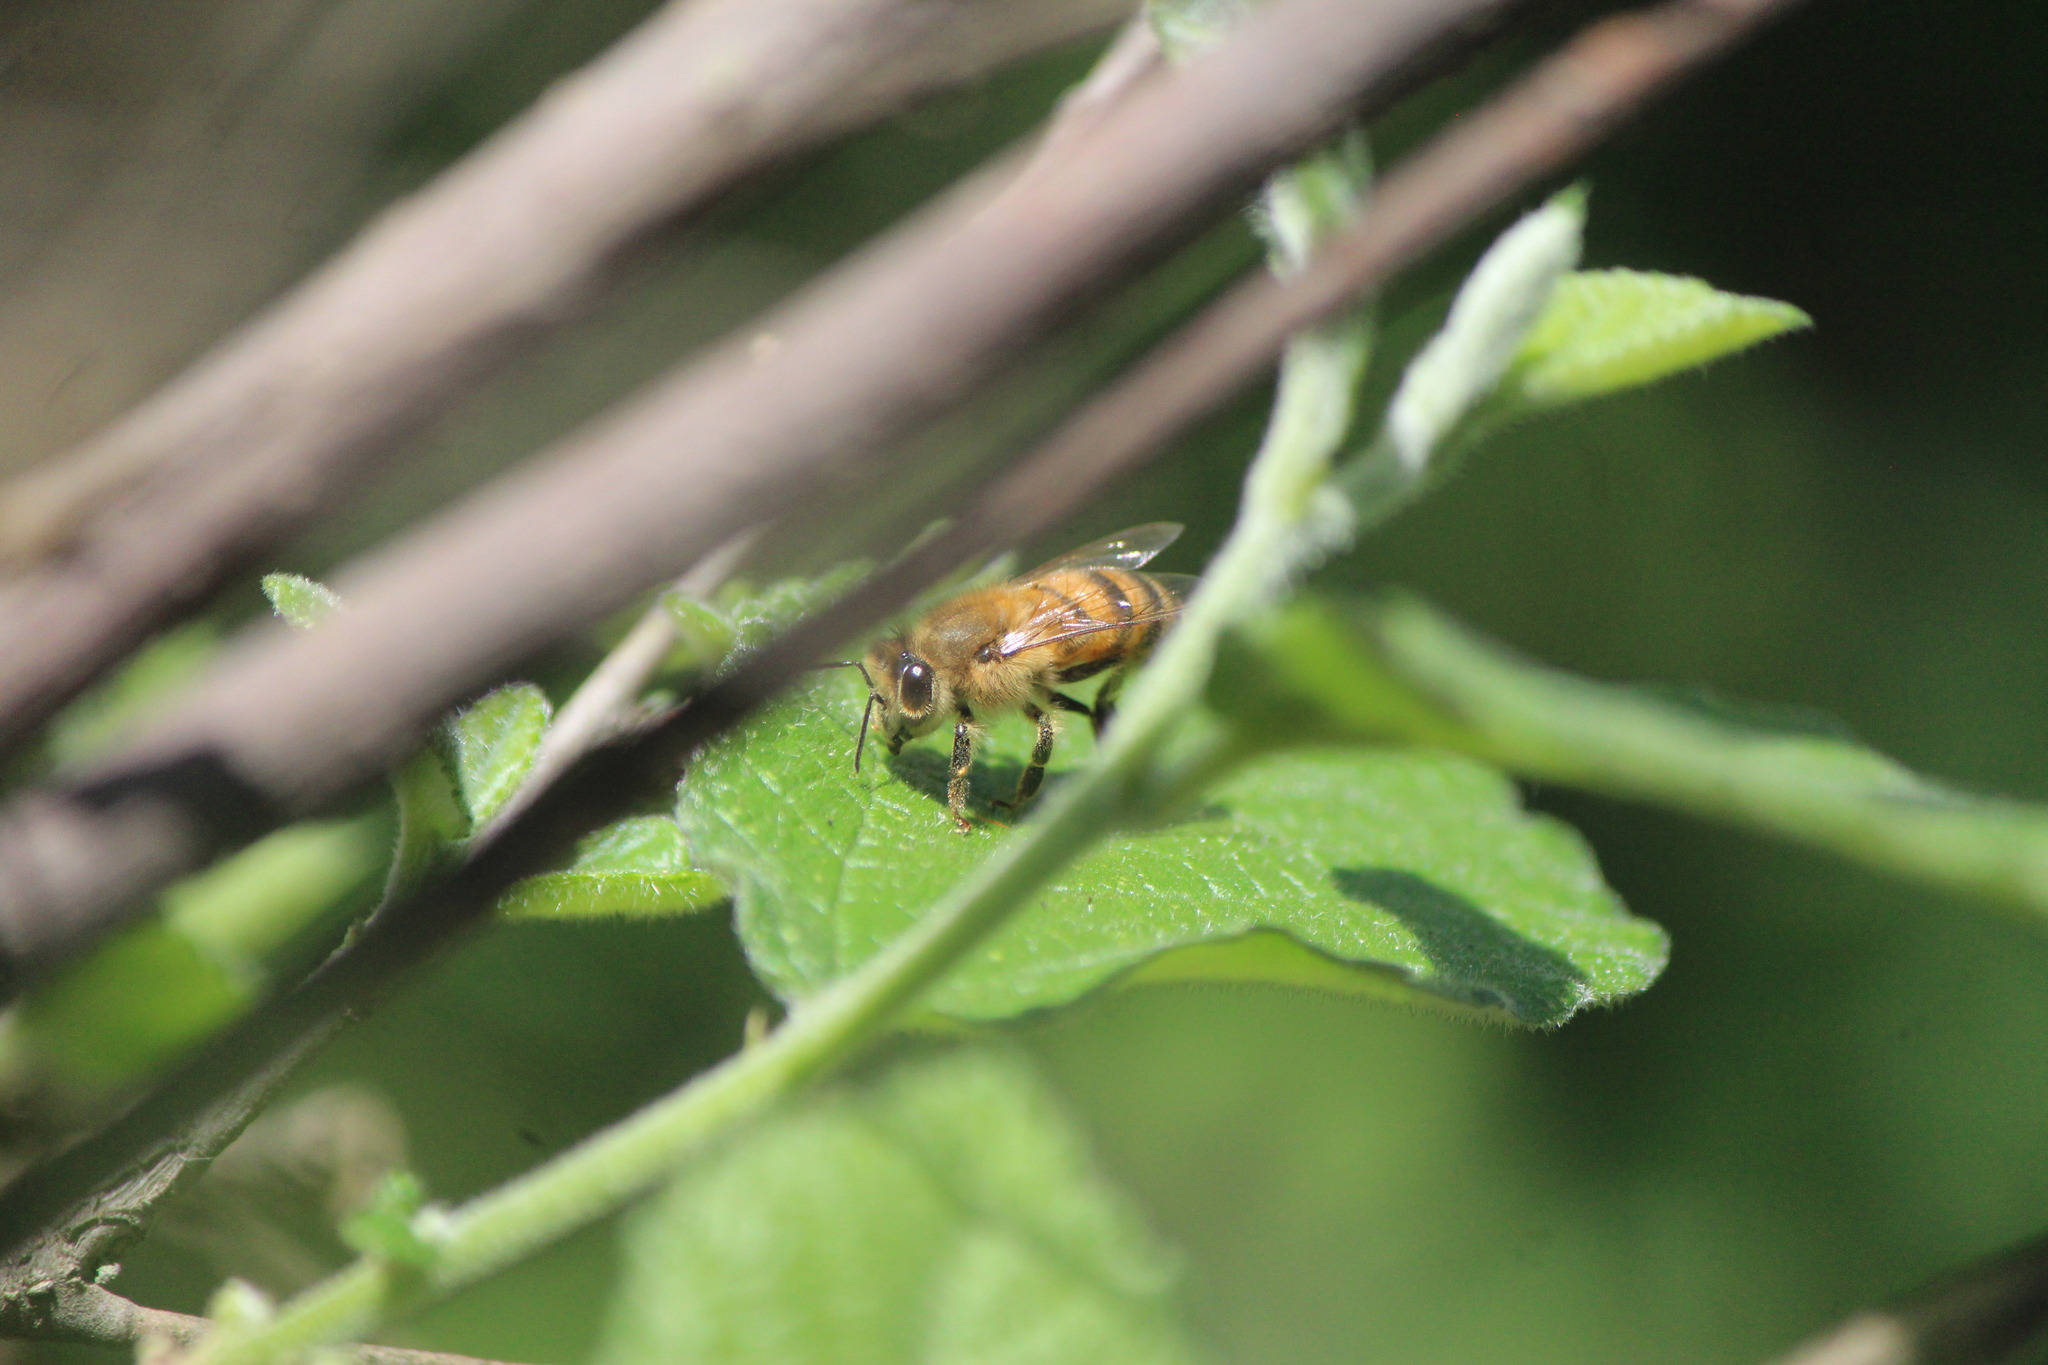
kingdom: Animalia
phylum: Arthropoda
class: Insecta
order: Hymenoptera
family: Apidae
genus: Apis
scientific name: Apis mellifera
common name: Honey bee
